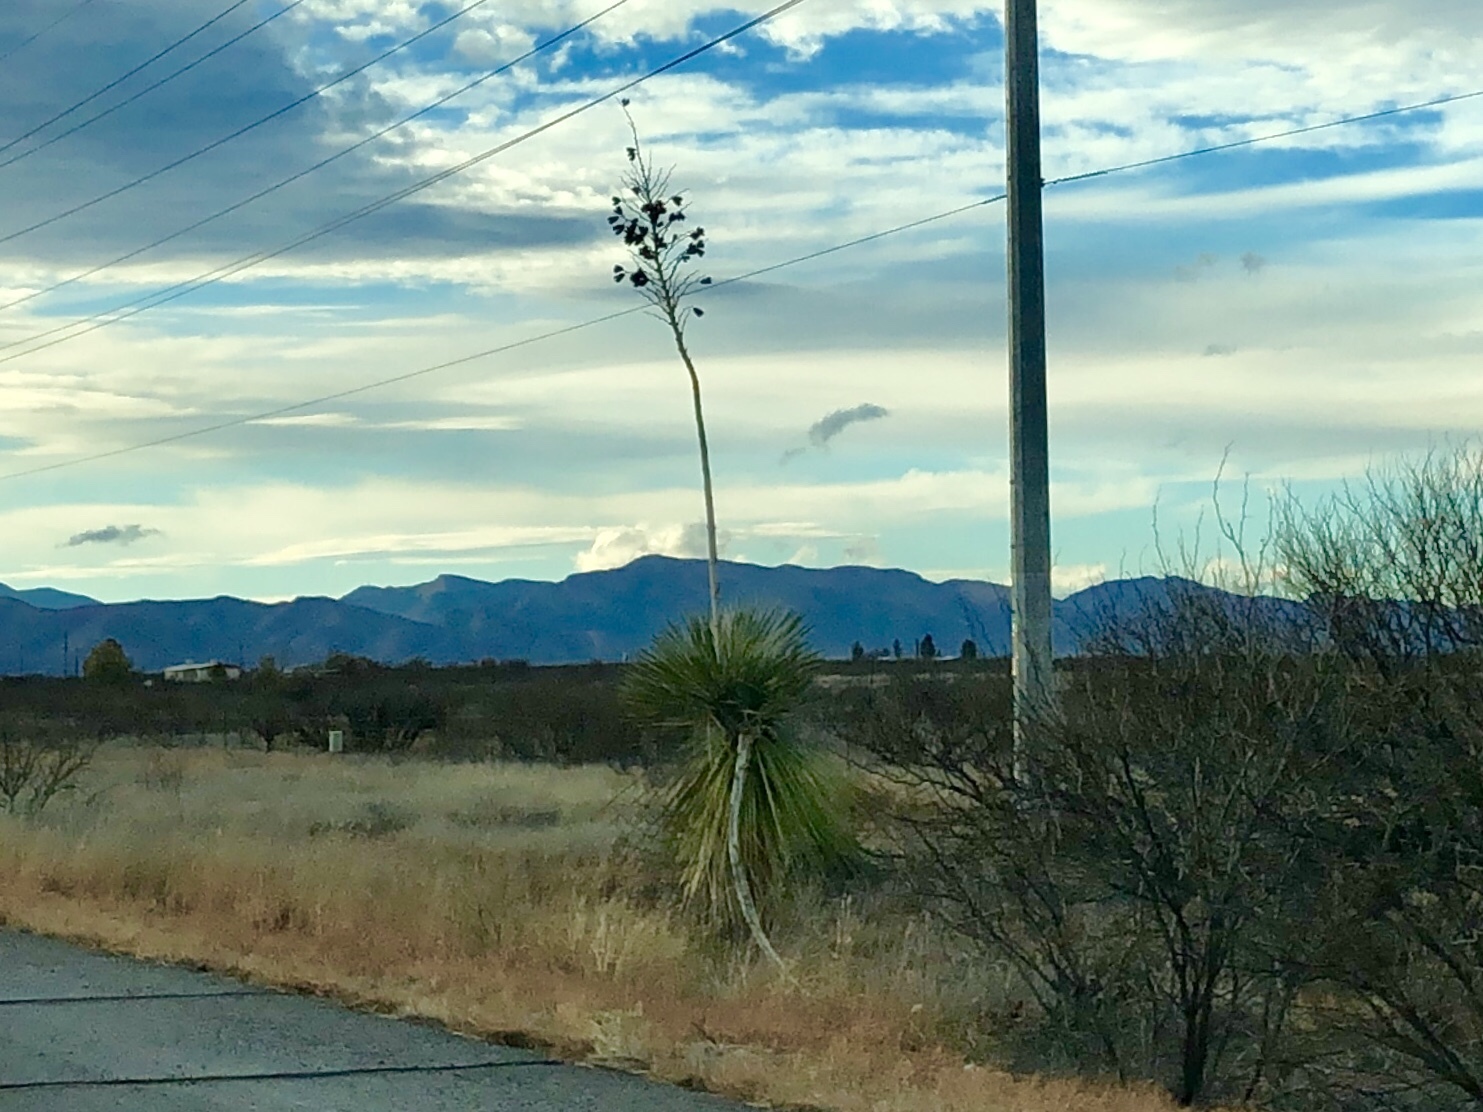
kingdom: Plantae
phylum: Tracheophyta
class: Liliopsida
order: Asparagales
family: Asparagaceae
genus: Yucca
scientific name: Yucca elata
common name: Palmella
